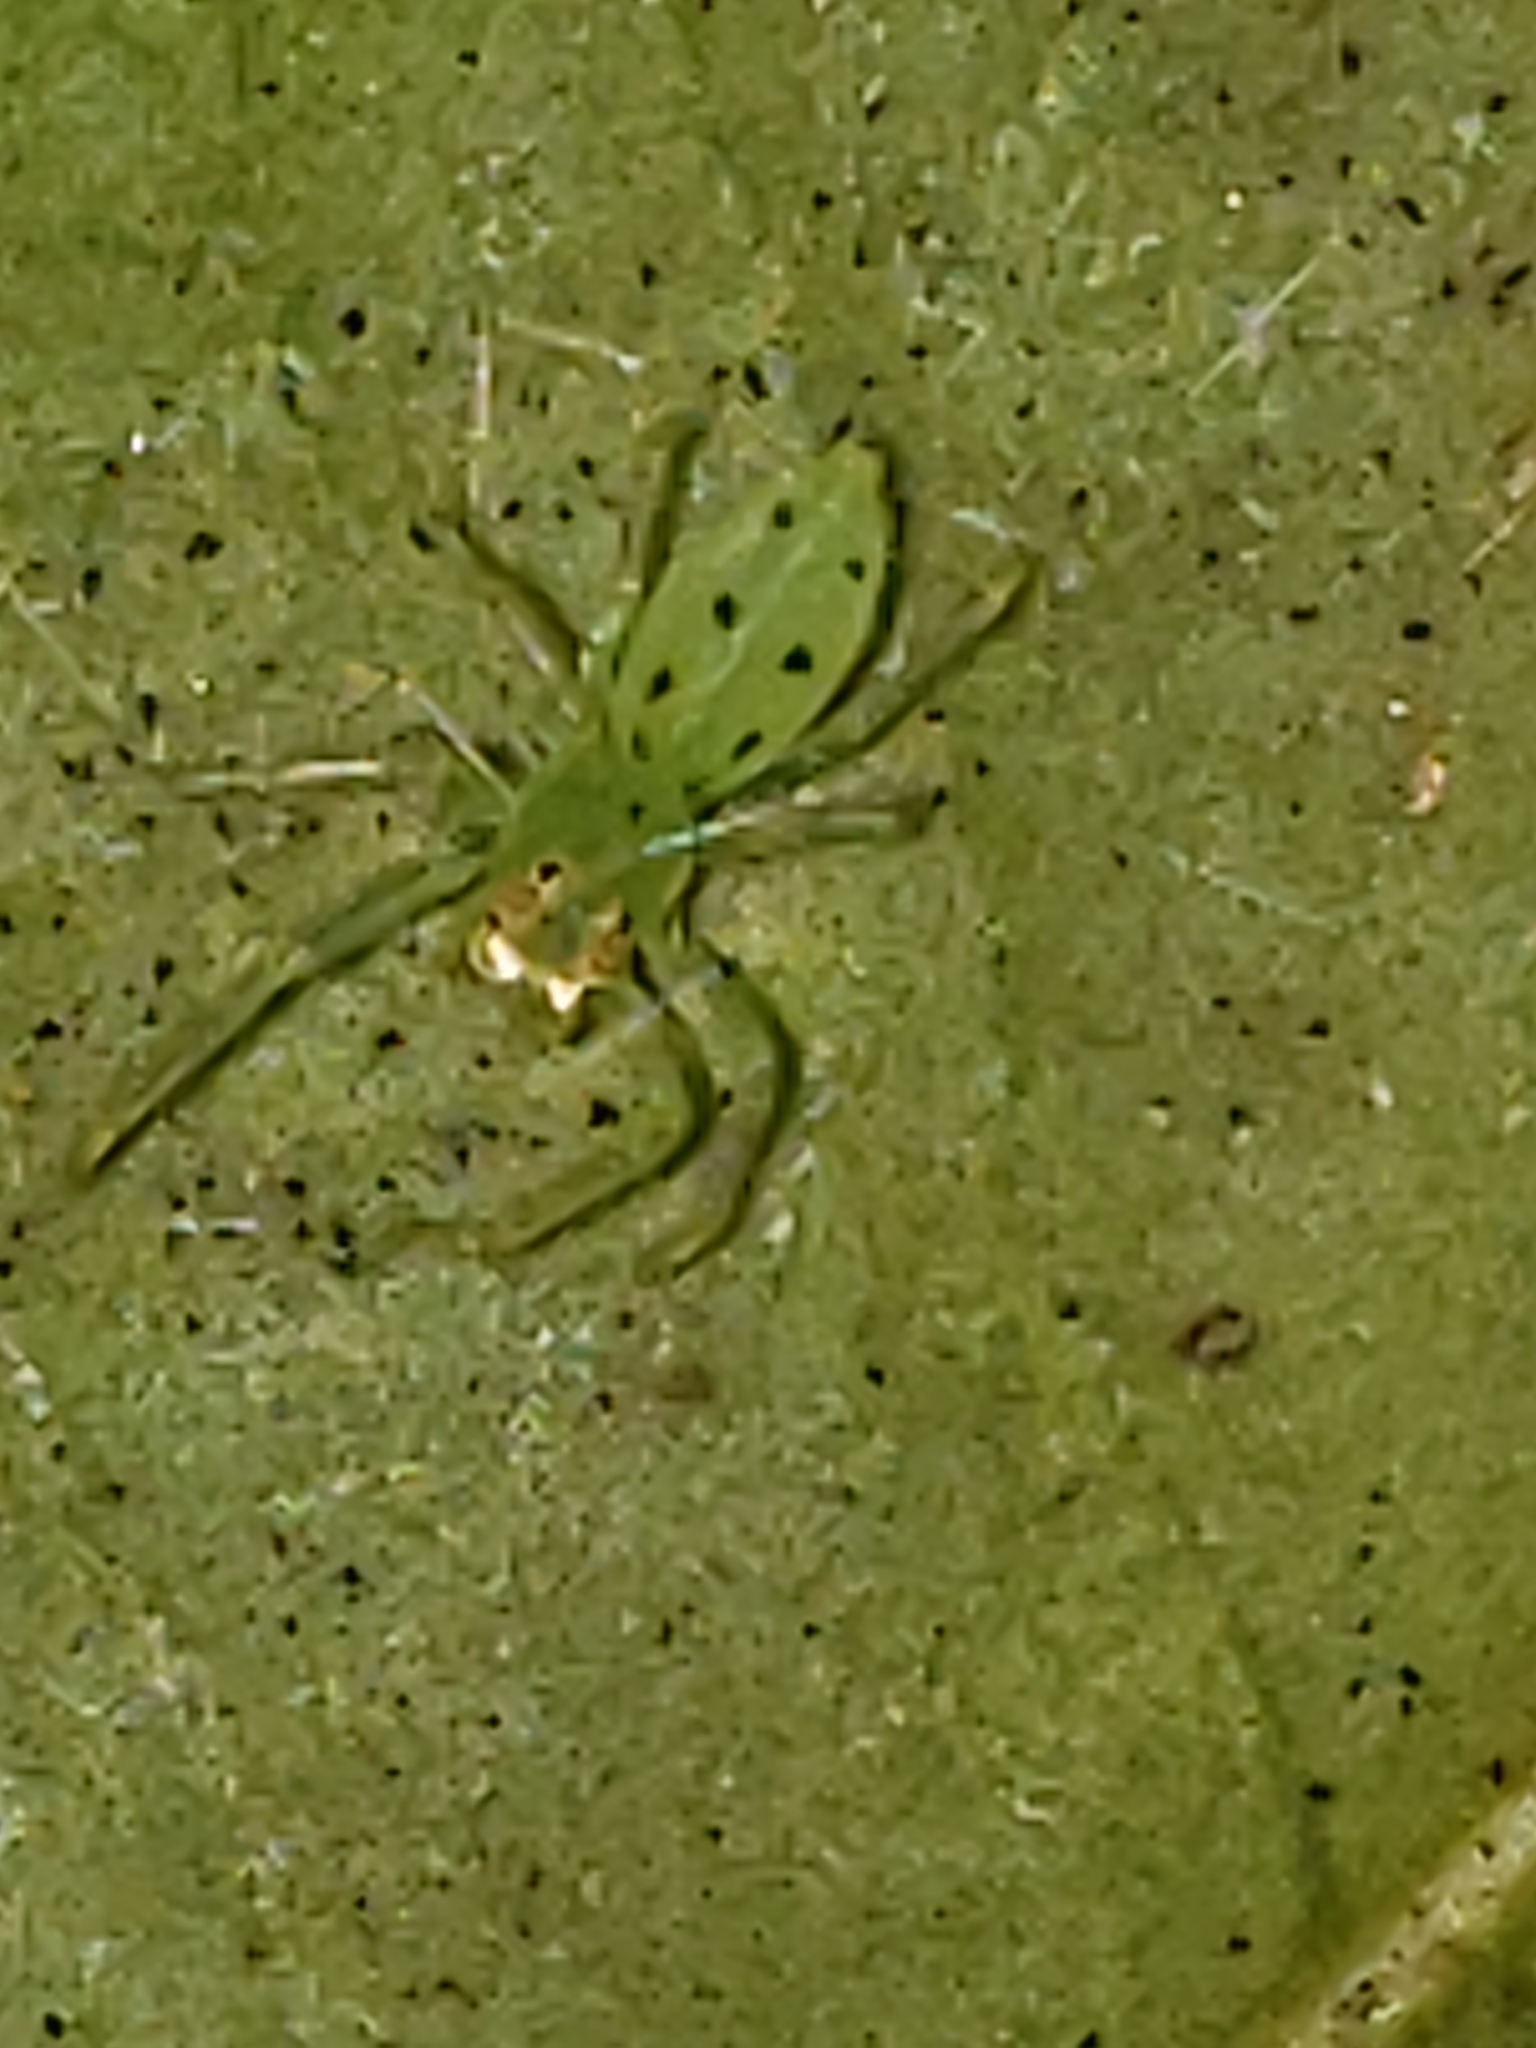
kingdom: Animalia
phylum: Arthropoda
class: Arachnida
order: Araneae
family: Salticidae
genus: Lyssomanes
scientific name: Lyssomanes viridis
